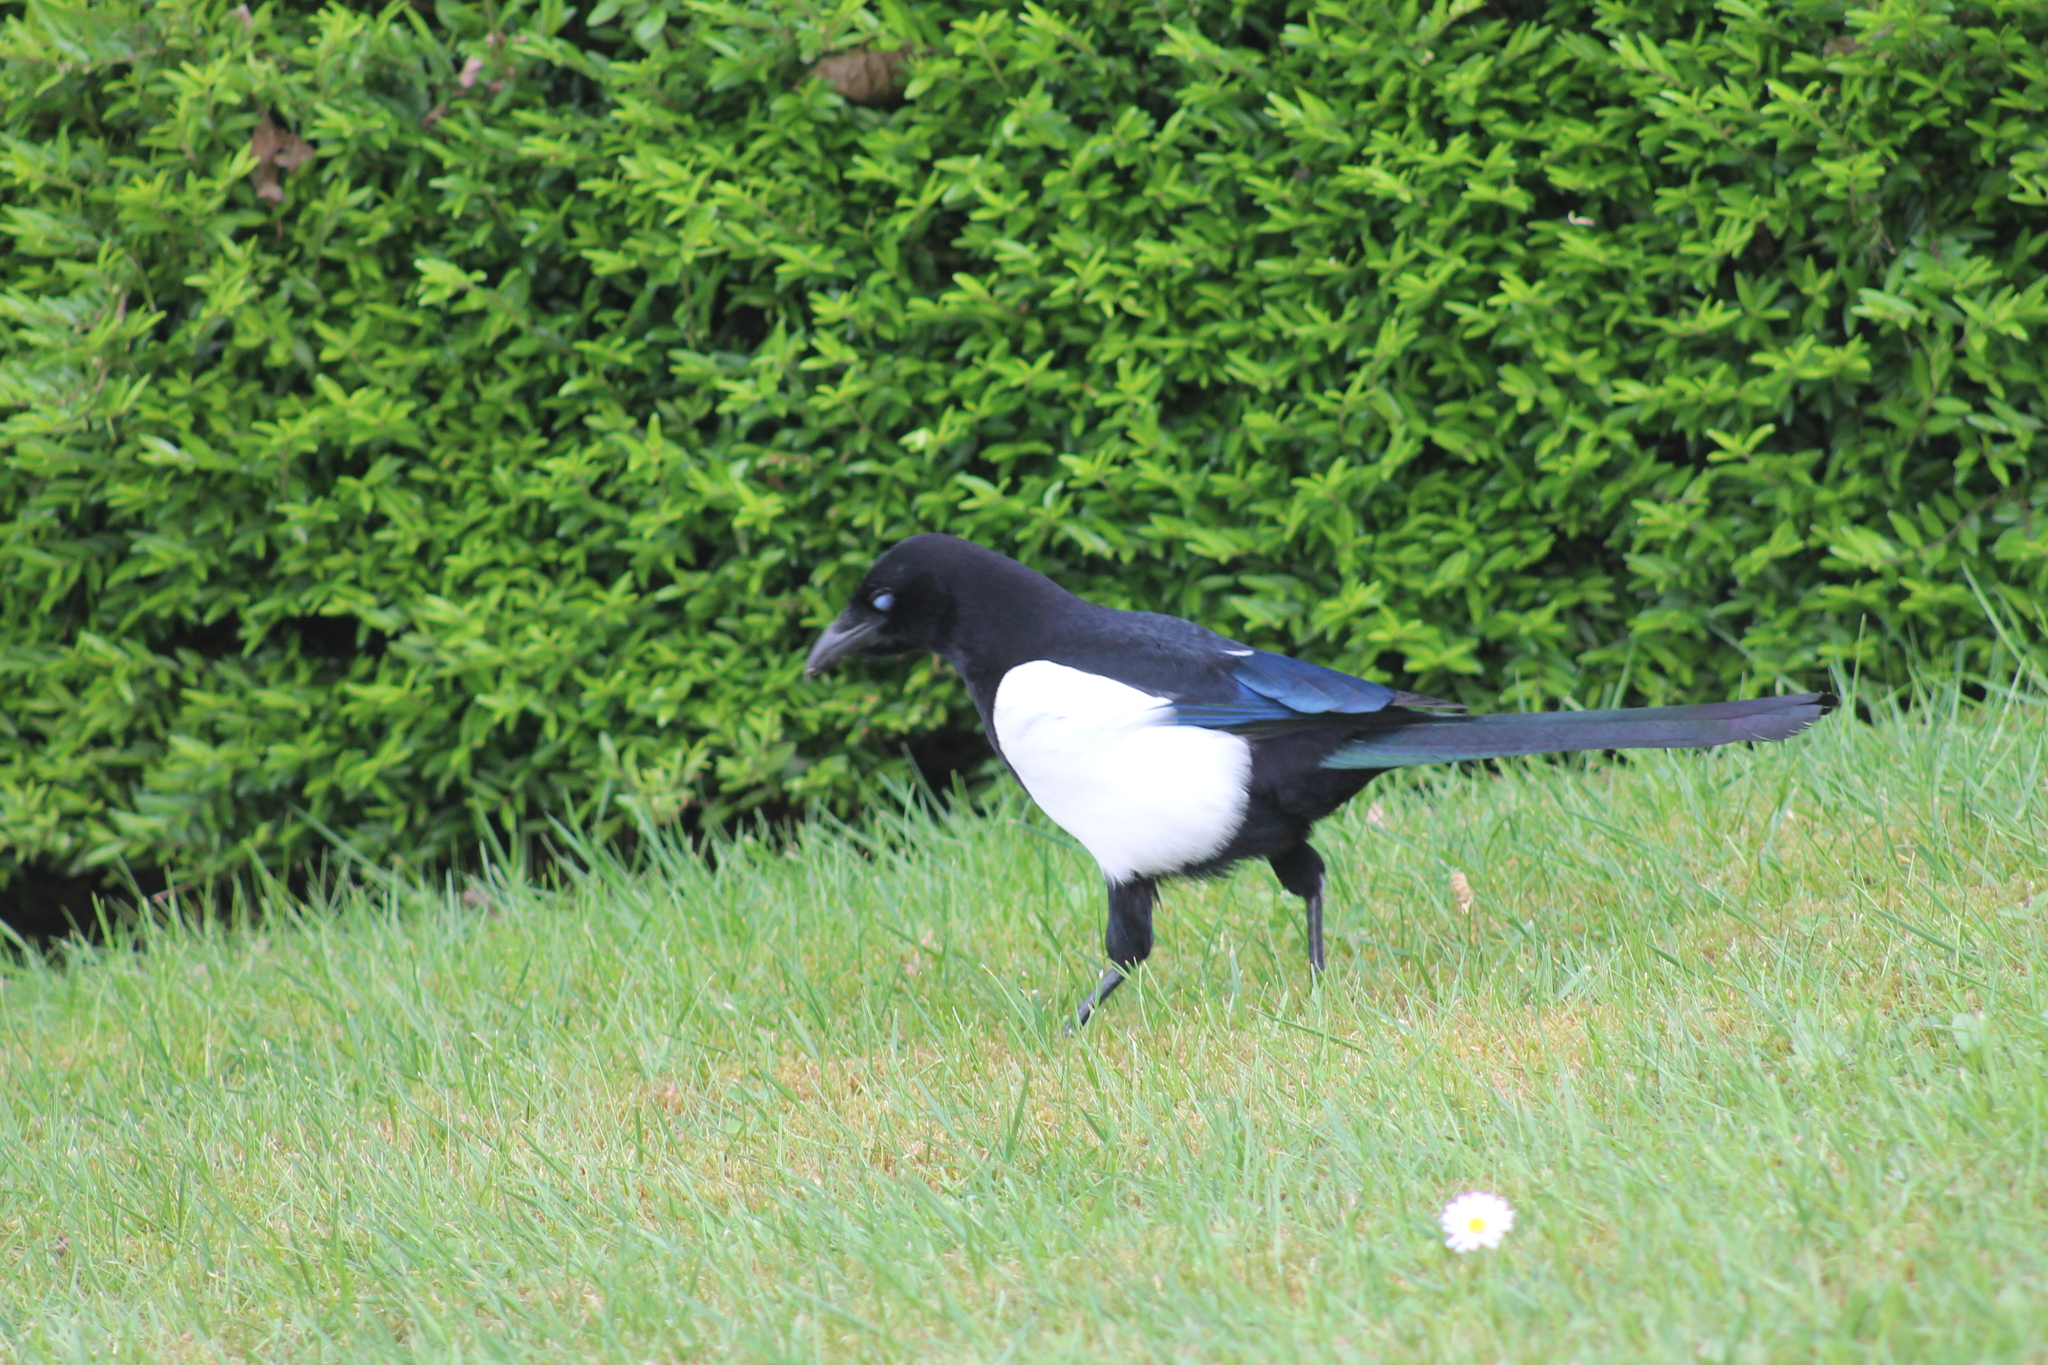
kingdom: Animalia
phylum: Chordata
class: Aves
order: Passeriformes
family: Corvidae
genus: Pica
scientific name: Pica pica
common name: Eurasian magpie
